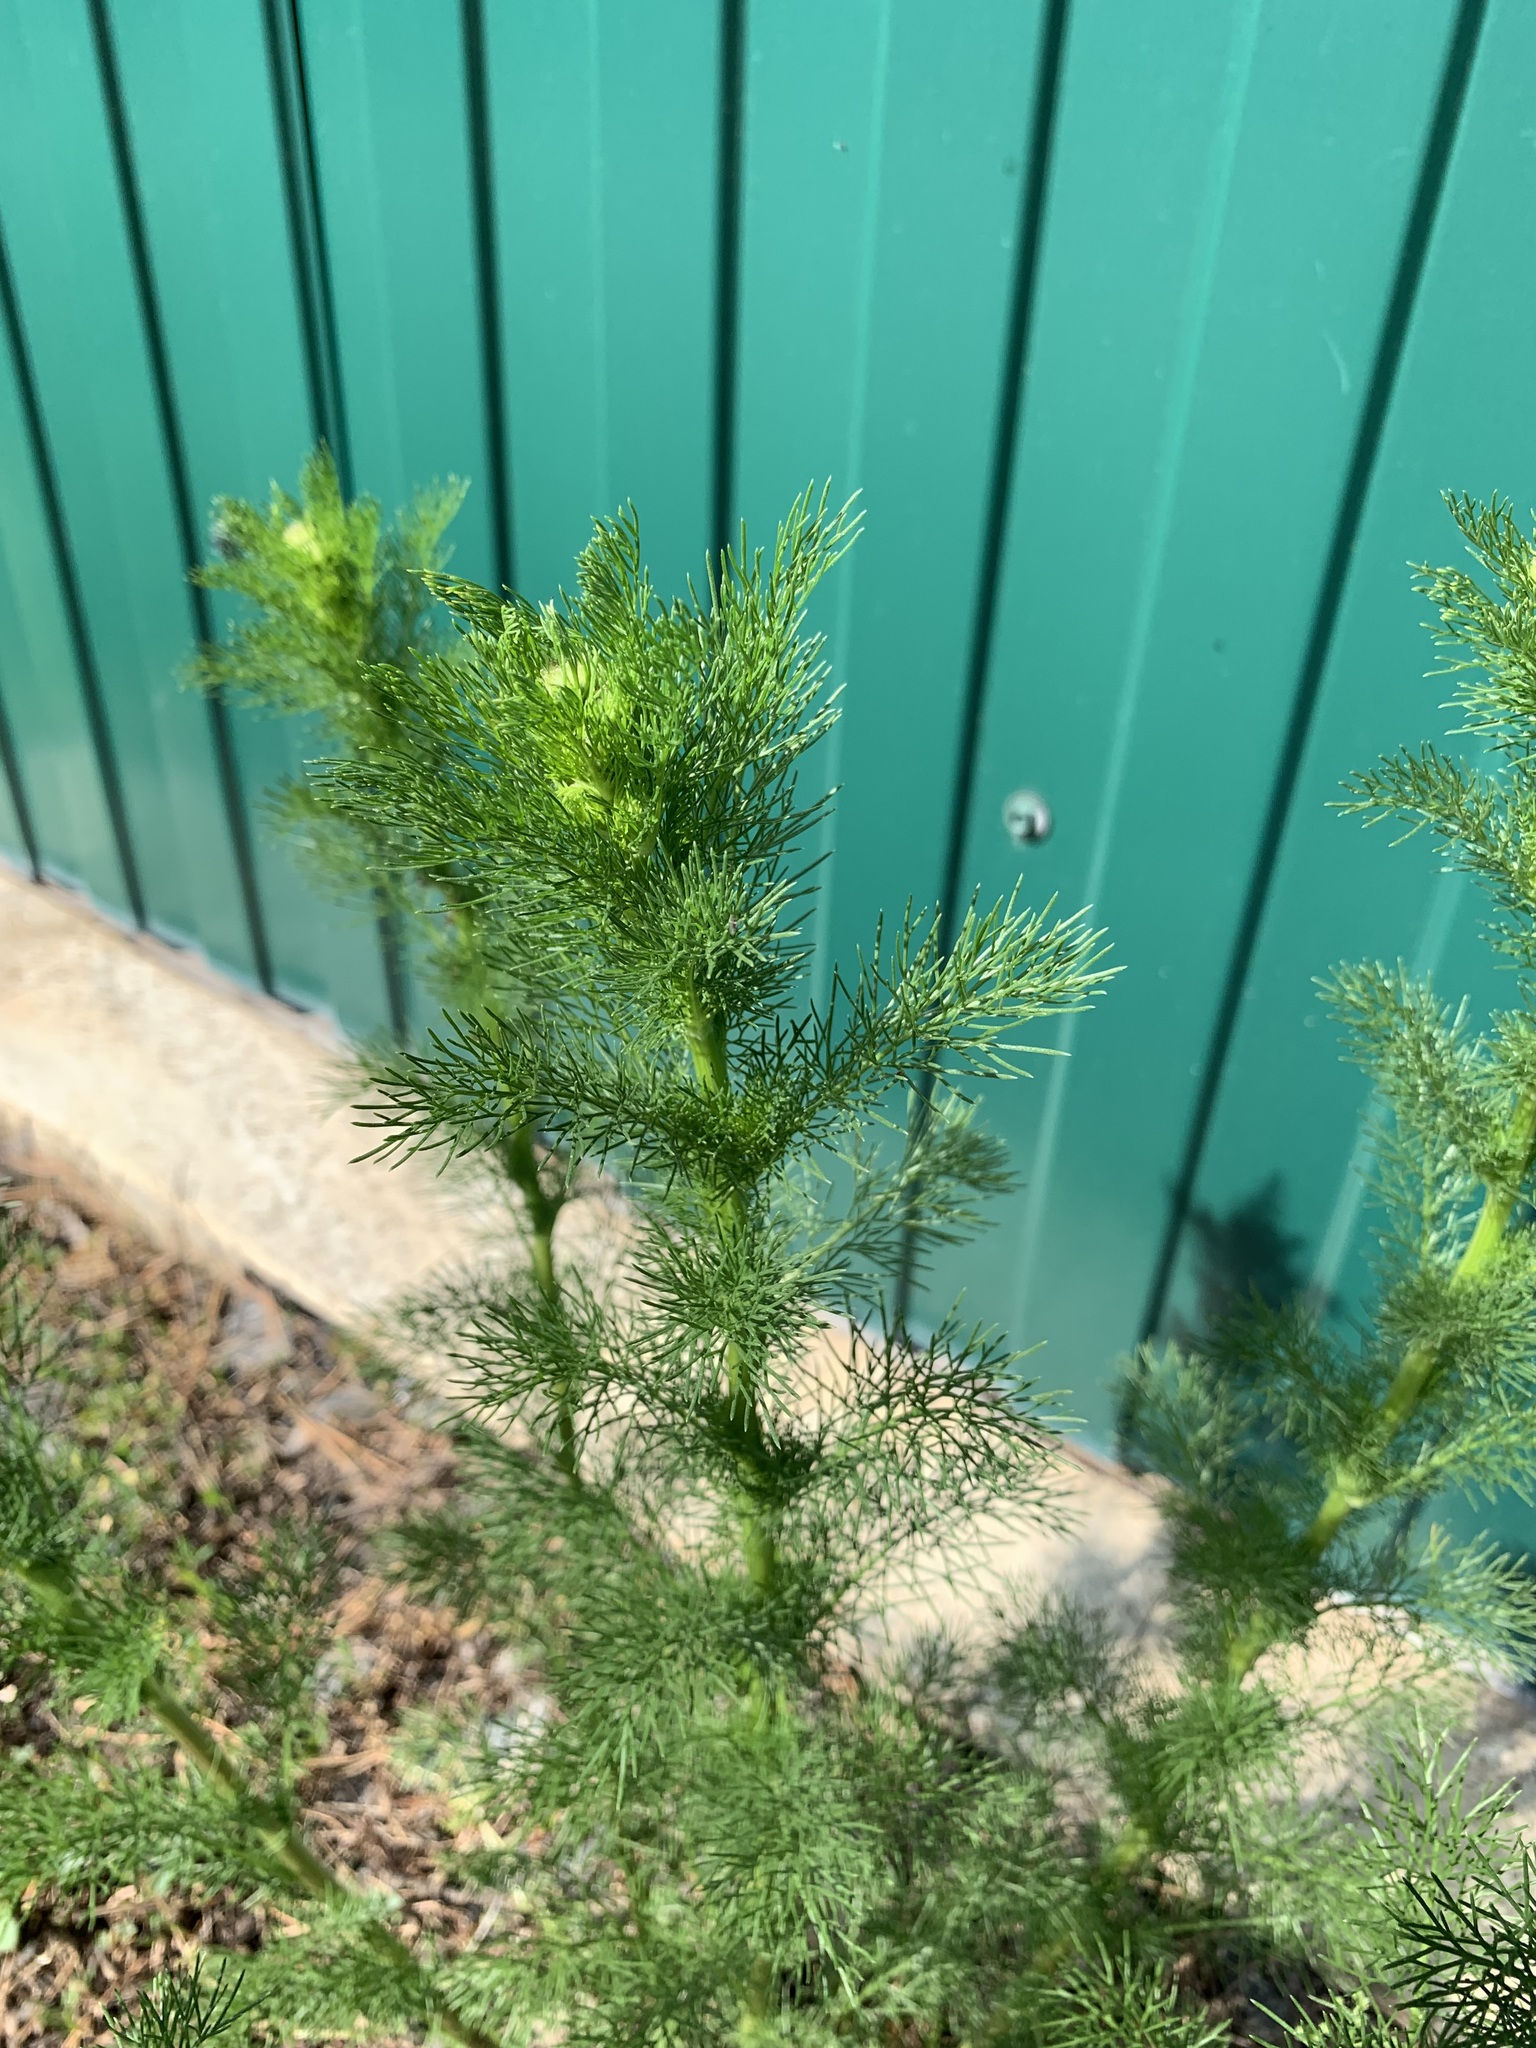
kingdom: Plantae
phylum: Tracheophyta
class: Magnoliopsida
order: Asterales
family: Asteraceae
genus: Tripleurospermum
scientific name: Tripleurospermum inodorum
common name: Scentless mayweed
